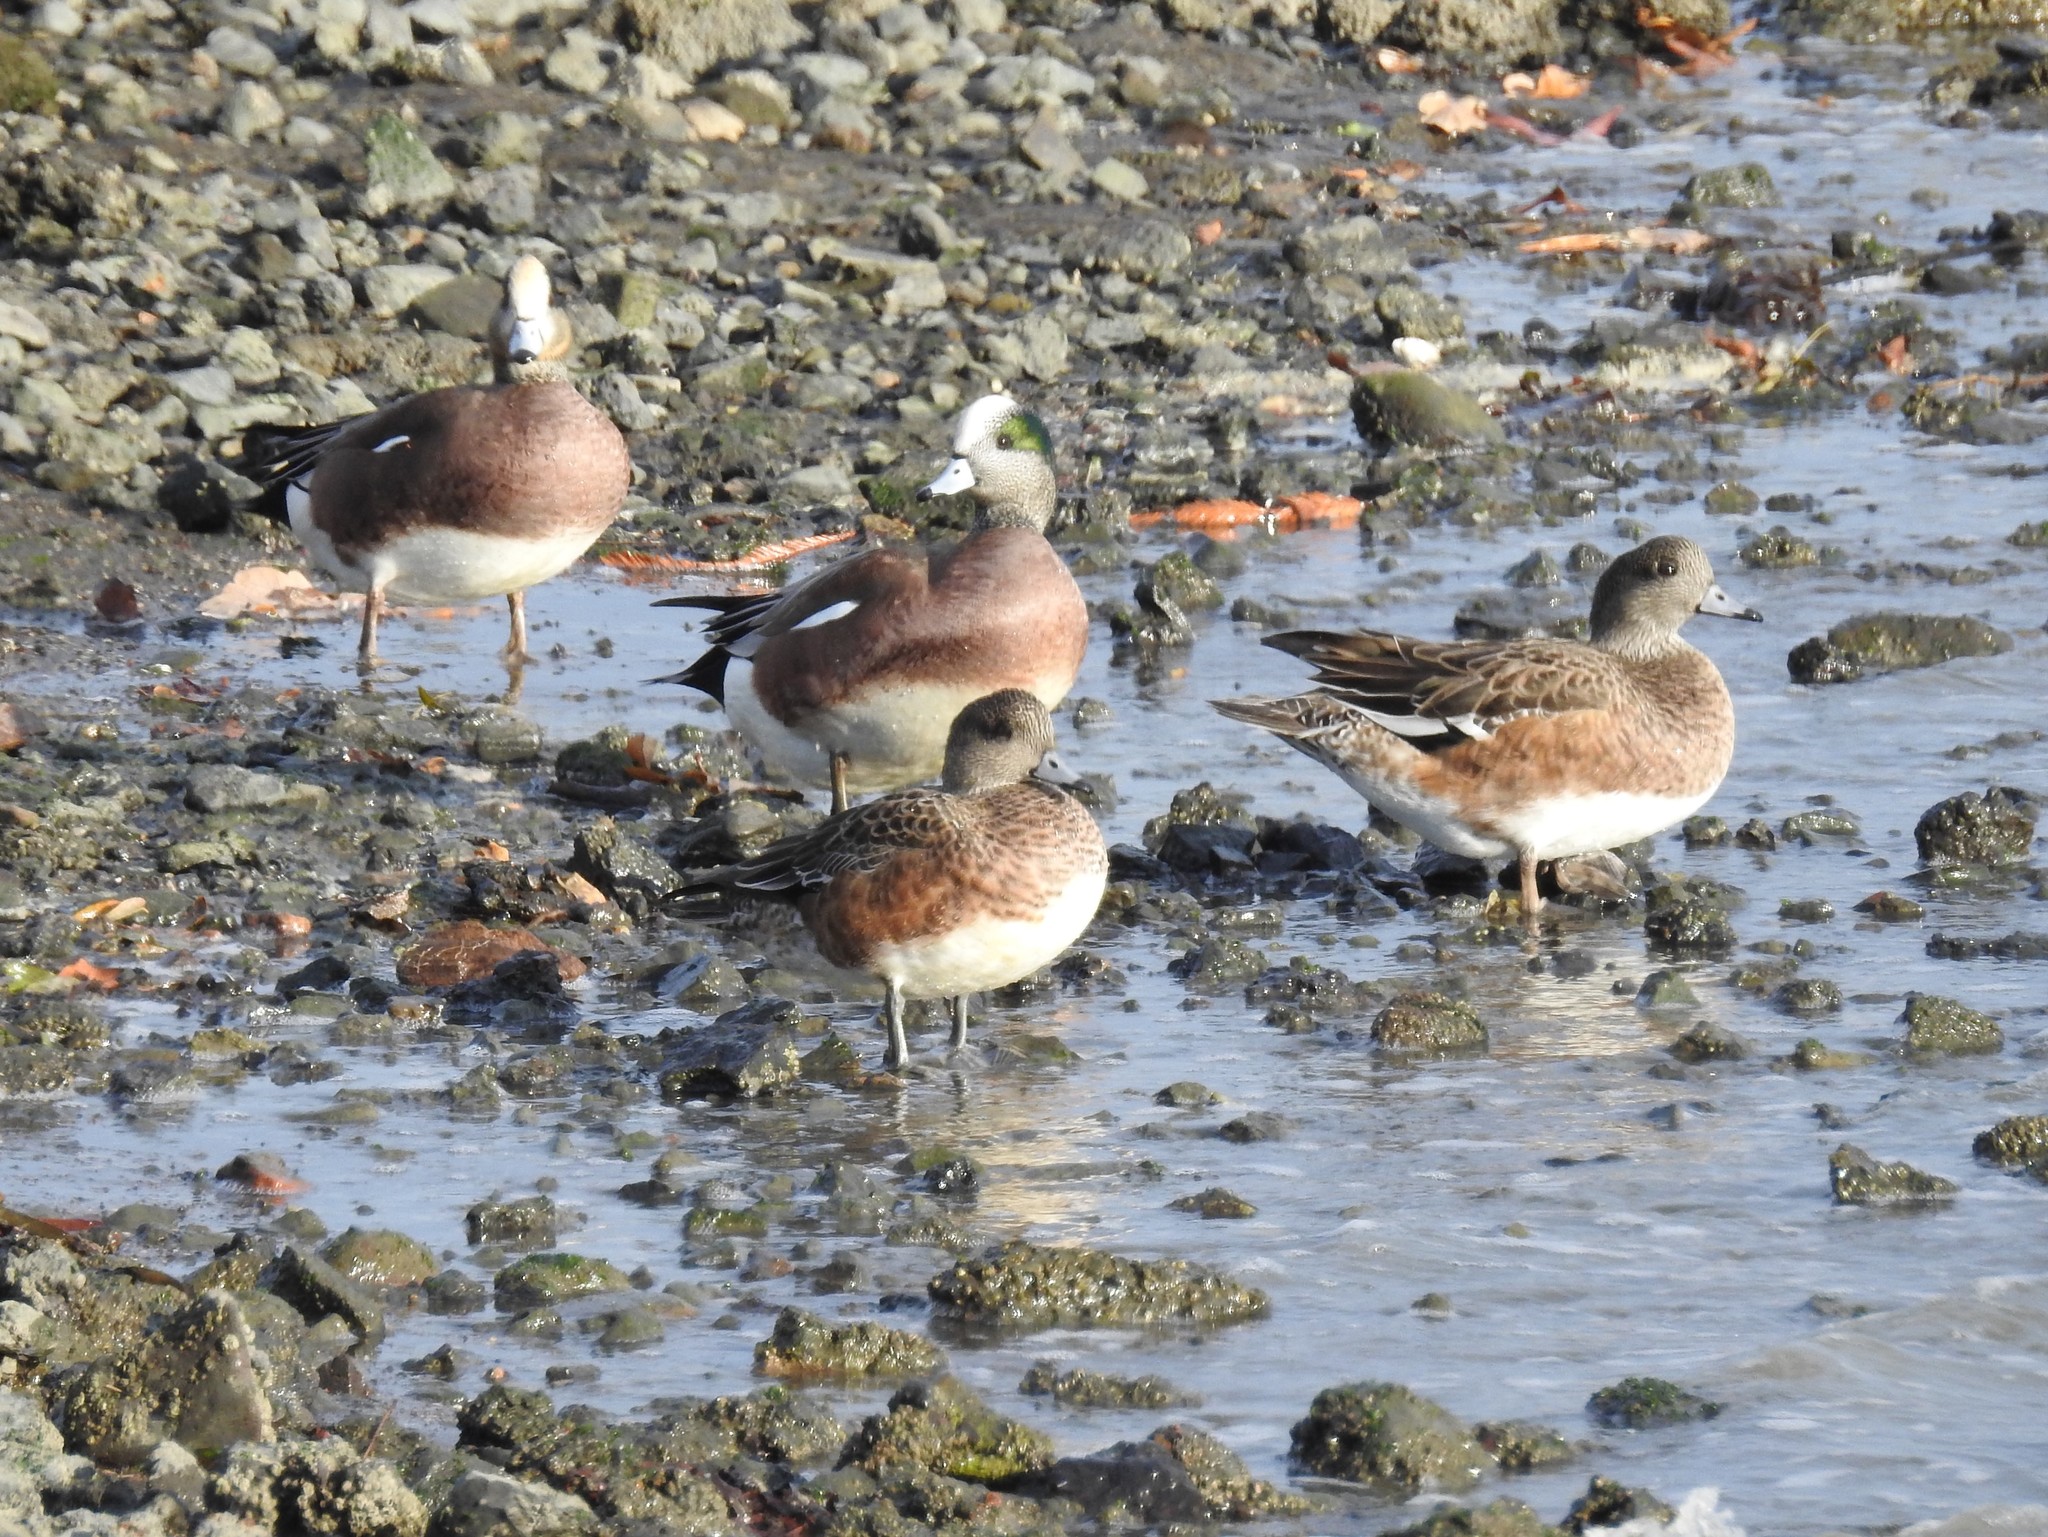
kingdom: Animalia
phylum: Chordata
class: Aves
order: Anseriformes
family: Anatidae
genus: Mareca
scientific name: Mareca americana
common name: American wigeon
